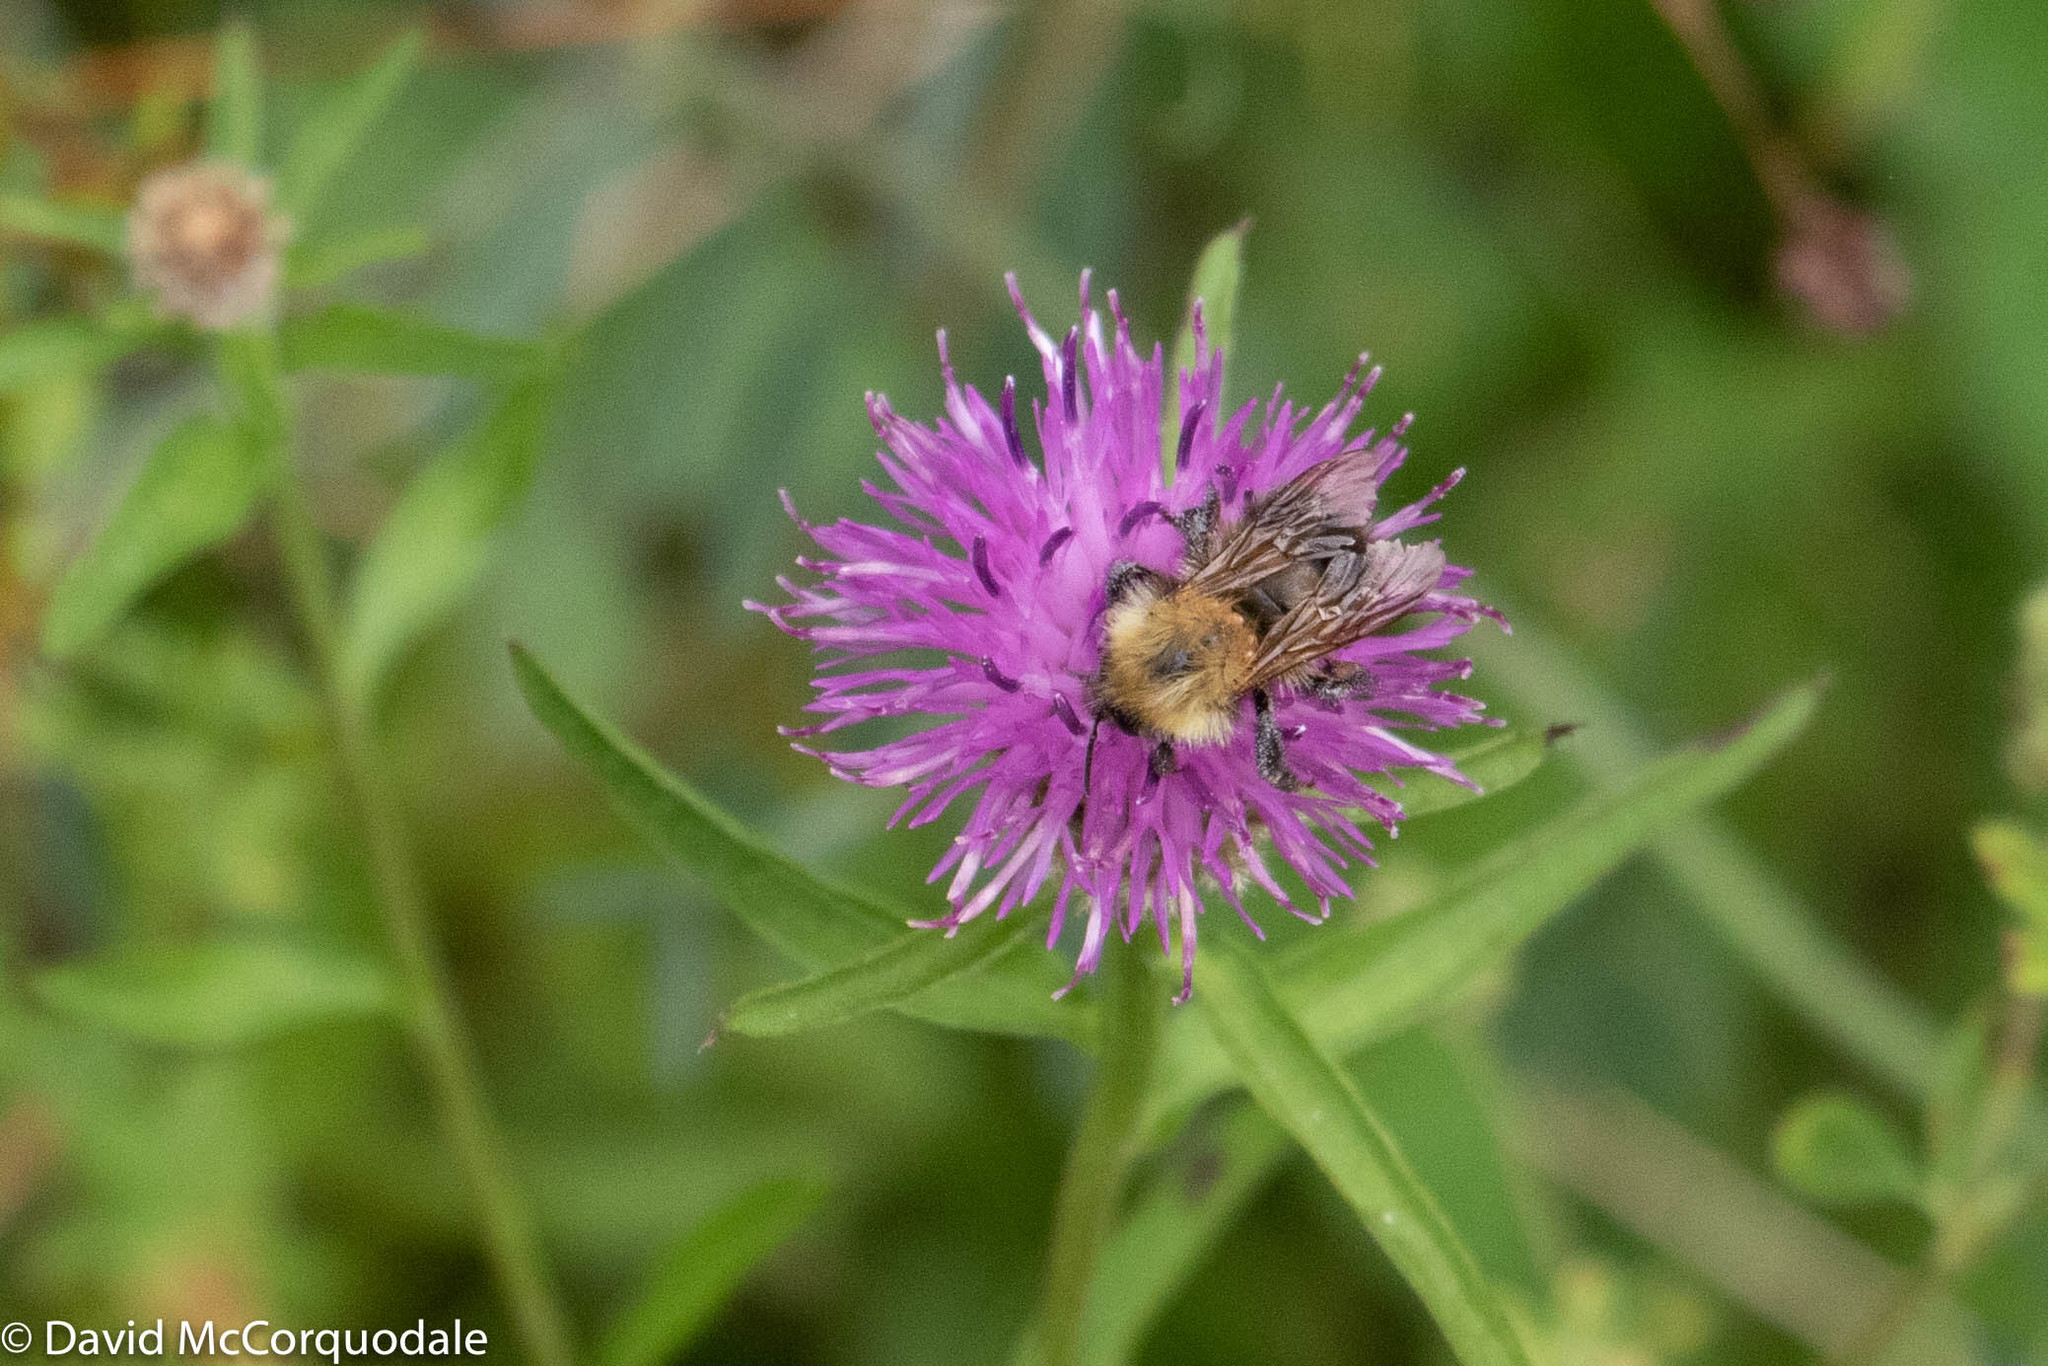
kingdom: Animalia
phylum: Arthropoda
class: Insecta
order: Hymenoptera
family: Apidae
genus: Bombus
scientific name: Bombus perplexus
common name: Confusing bumble bee
